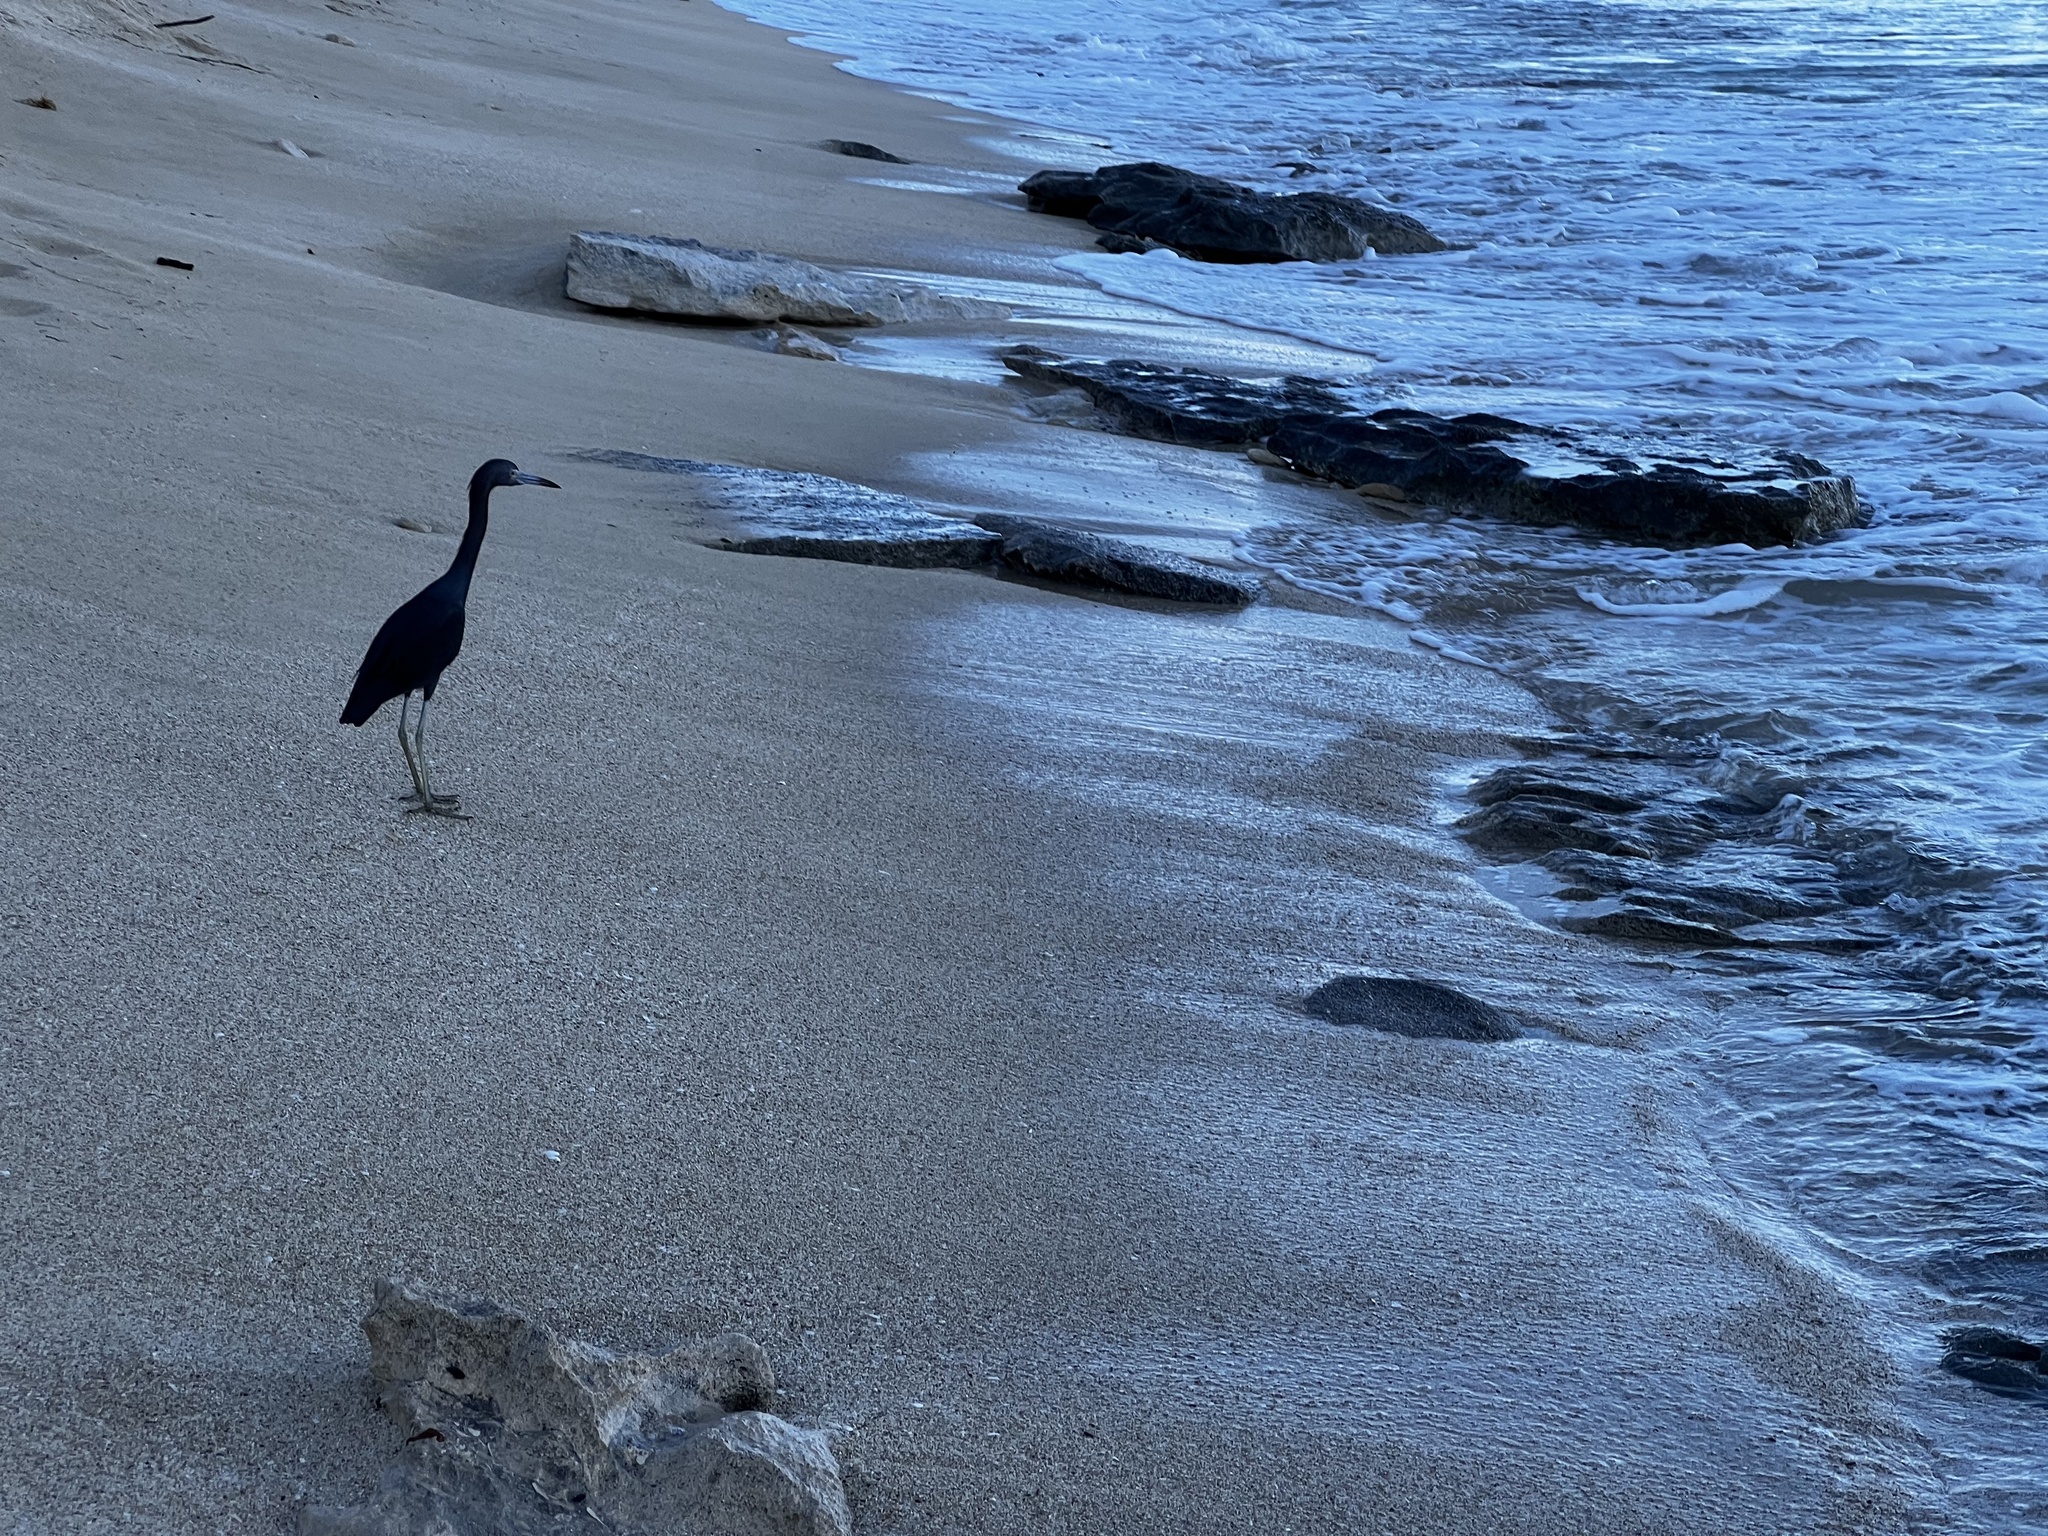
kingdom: Animalia
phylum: Chordata
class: Aves
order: Pelecaniformes
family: Ardeidae
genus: Egretta
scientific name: Egretta caerulea
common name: Little blue heron
